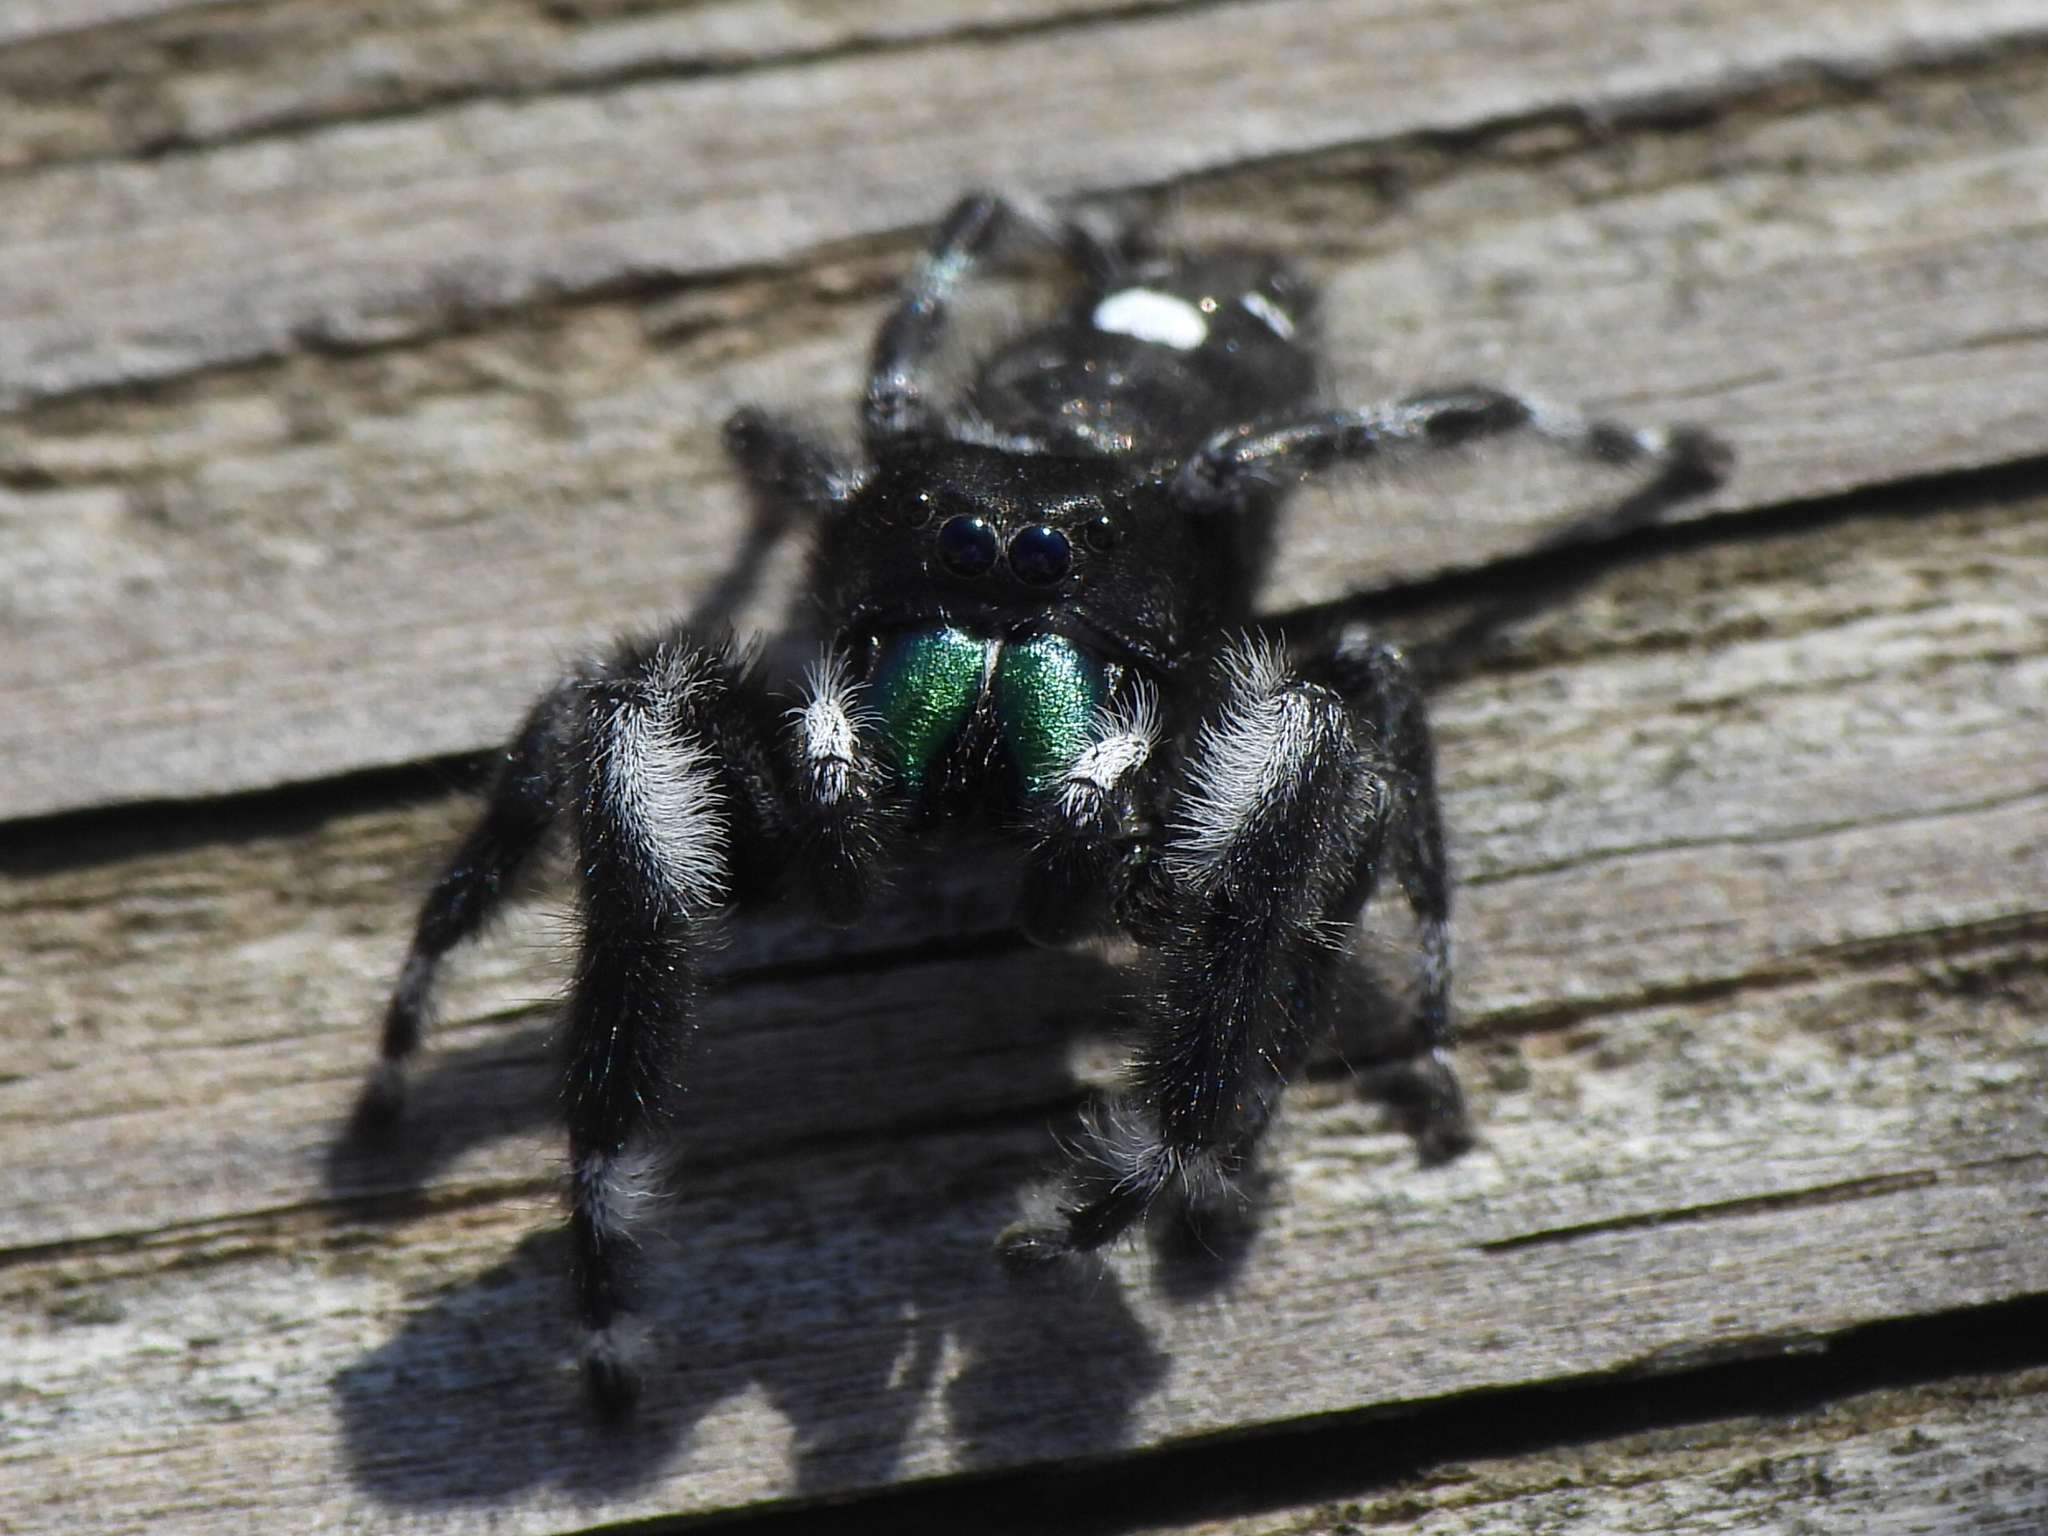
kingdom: Animalia
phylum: Arthropoda
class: Arachnida
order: Araneae
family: Salticidae
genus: Phidippus
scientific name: Phidippus audax
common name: Bold jumper
